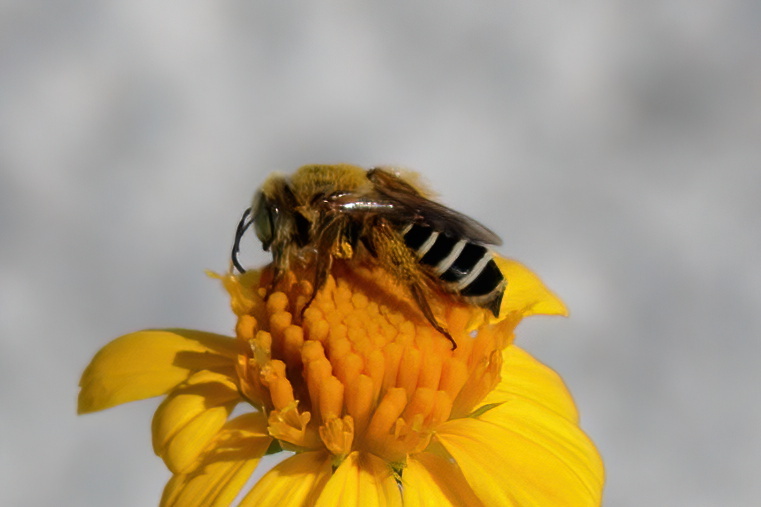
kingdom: Animalia
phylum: Arthropoda
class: Insecta
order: Hymenoptera
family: Melittidae
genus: Hesperapis
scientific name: Hesperapis oraria
